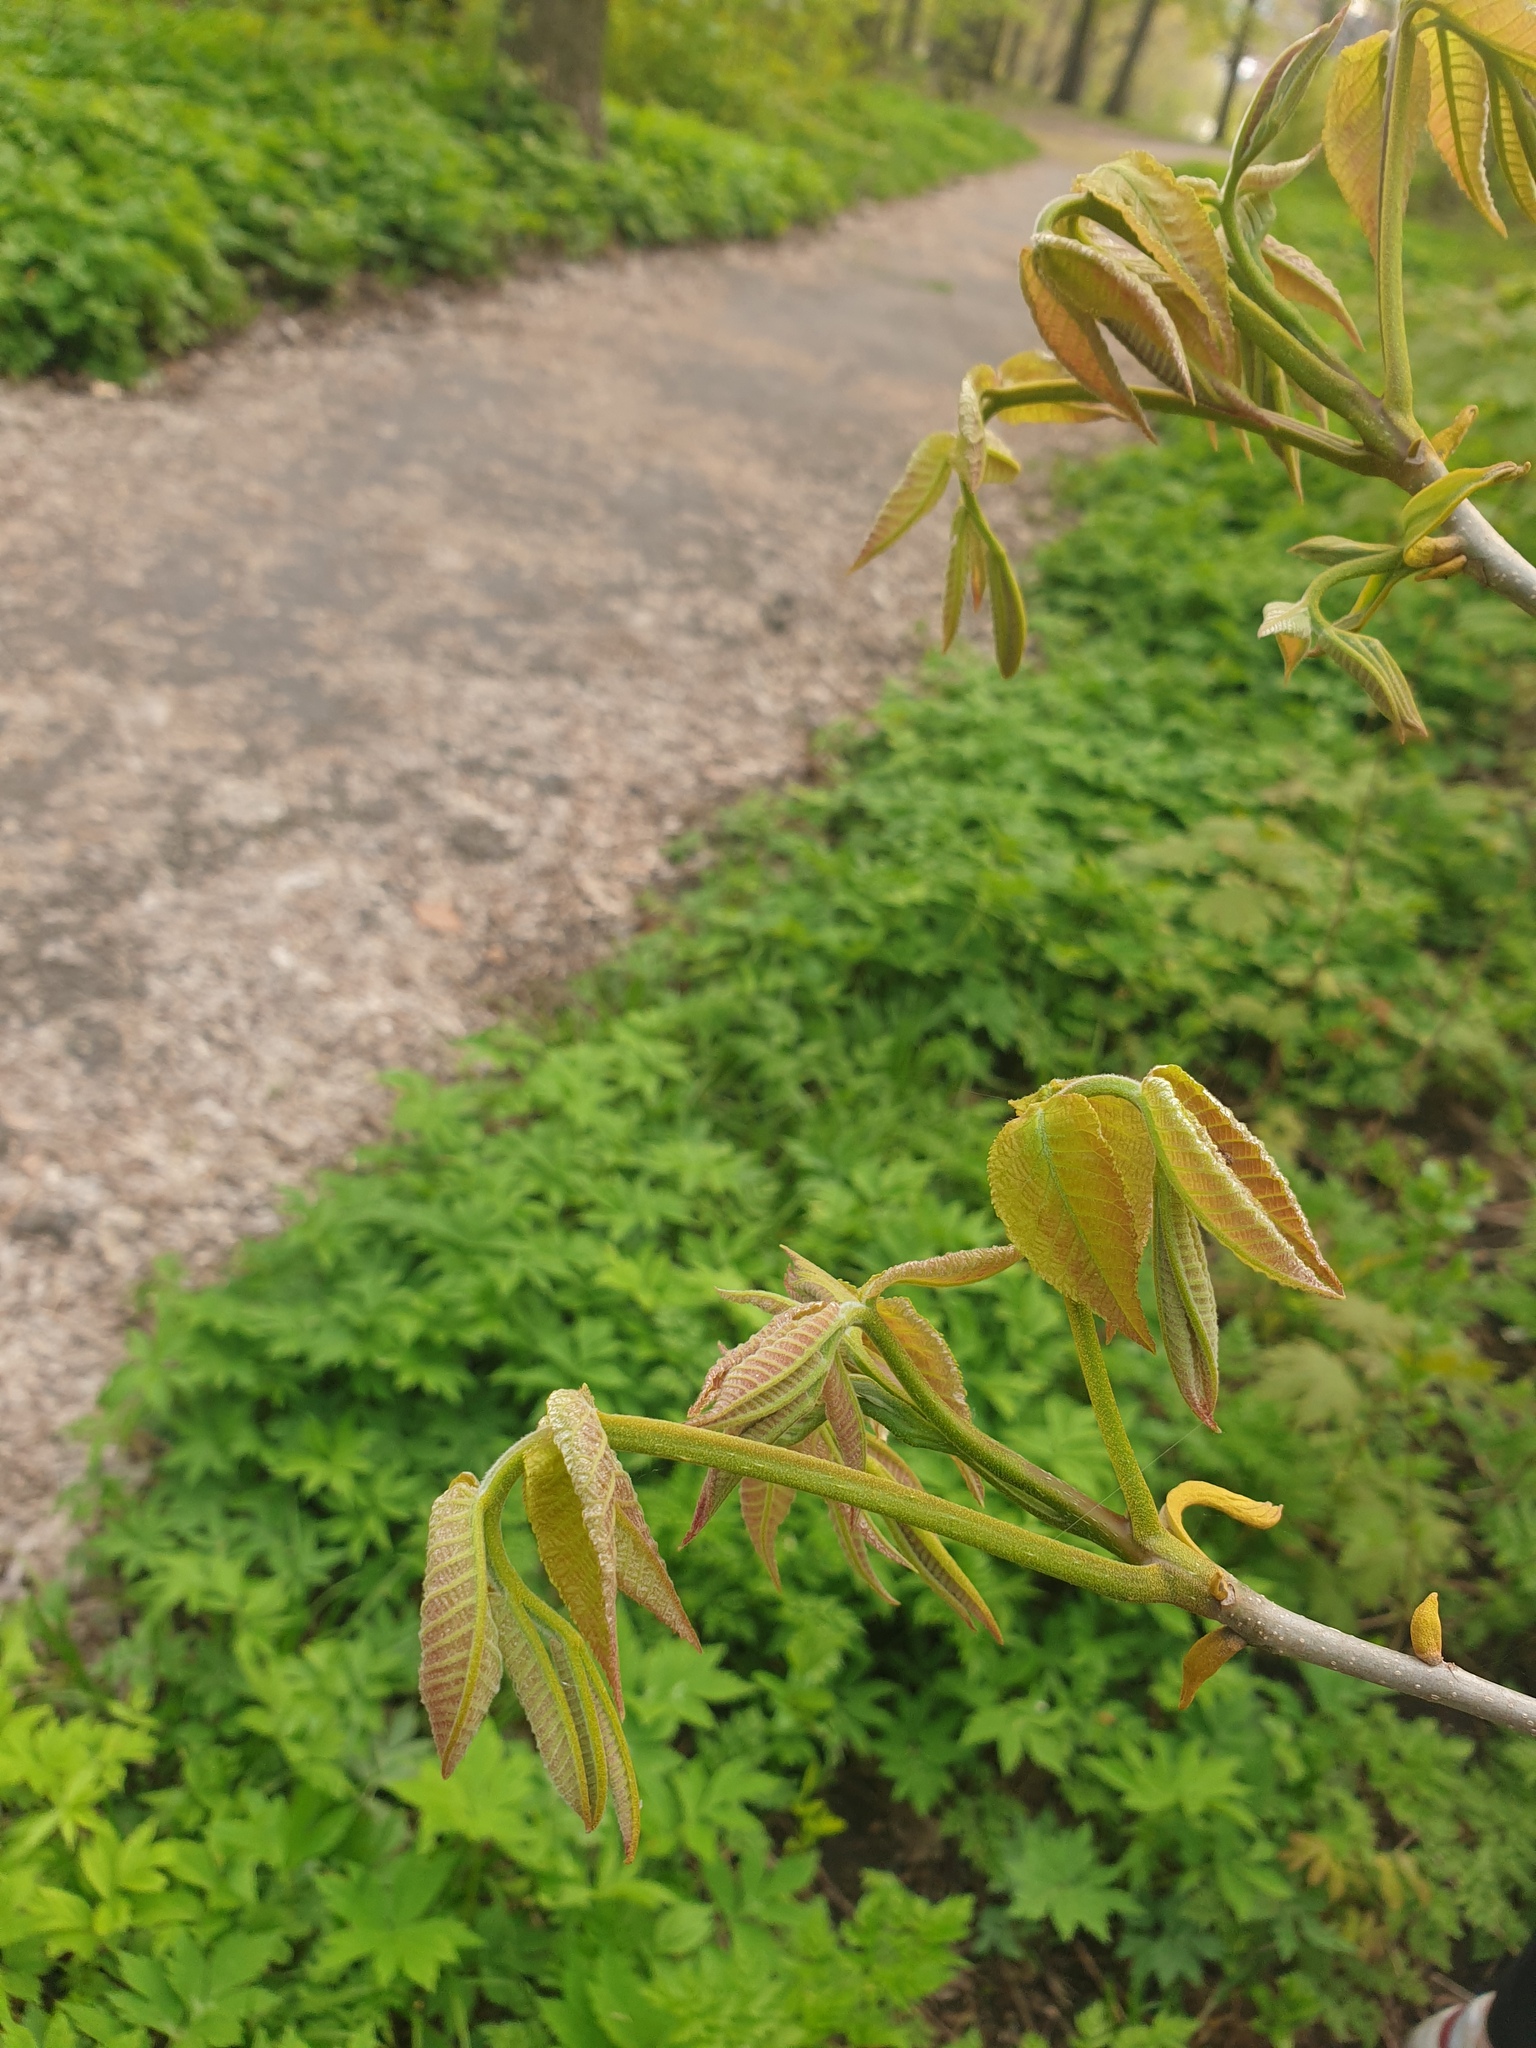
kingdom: Plantae
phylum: Tracheophyta
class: Magnoliopsida
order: Fagales
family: Juglandaceae
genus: Carya
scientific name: Carya cordiformis
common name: Bitternut hickory
